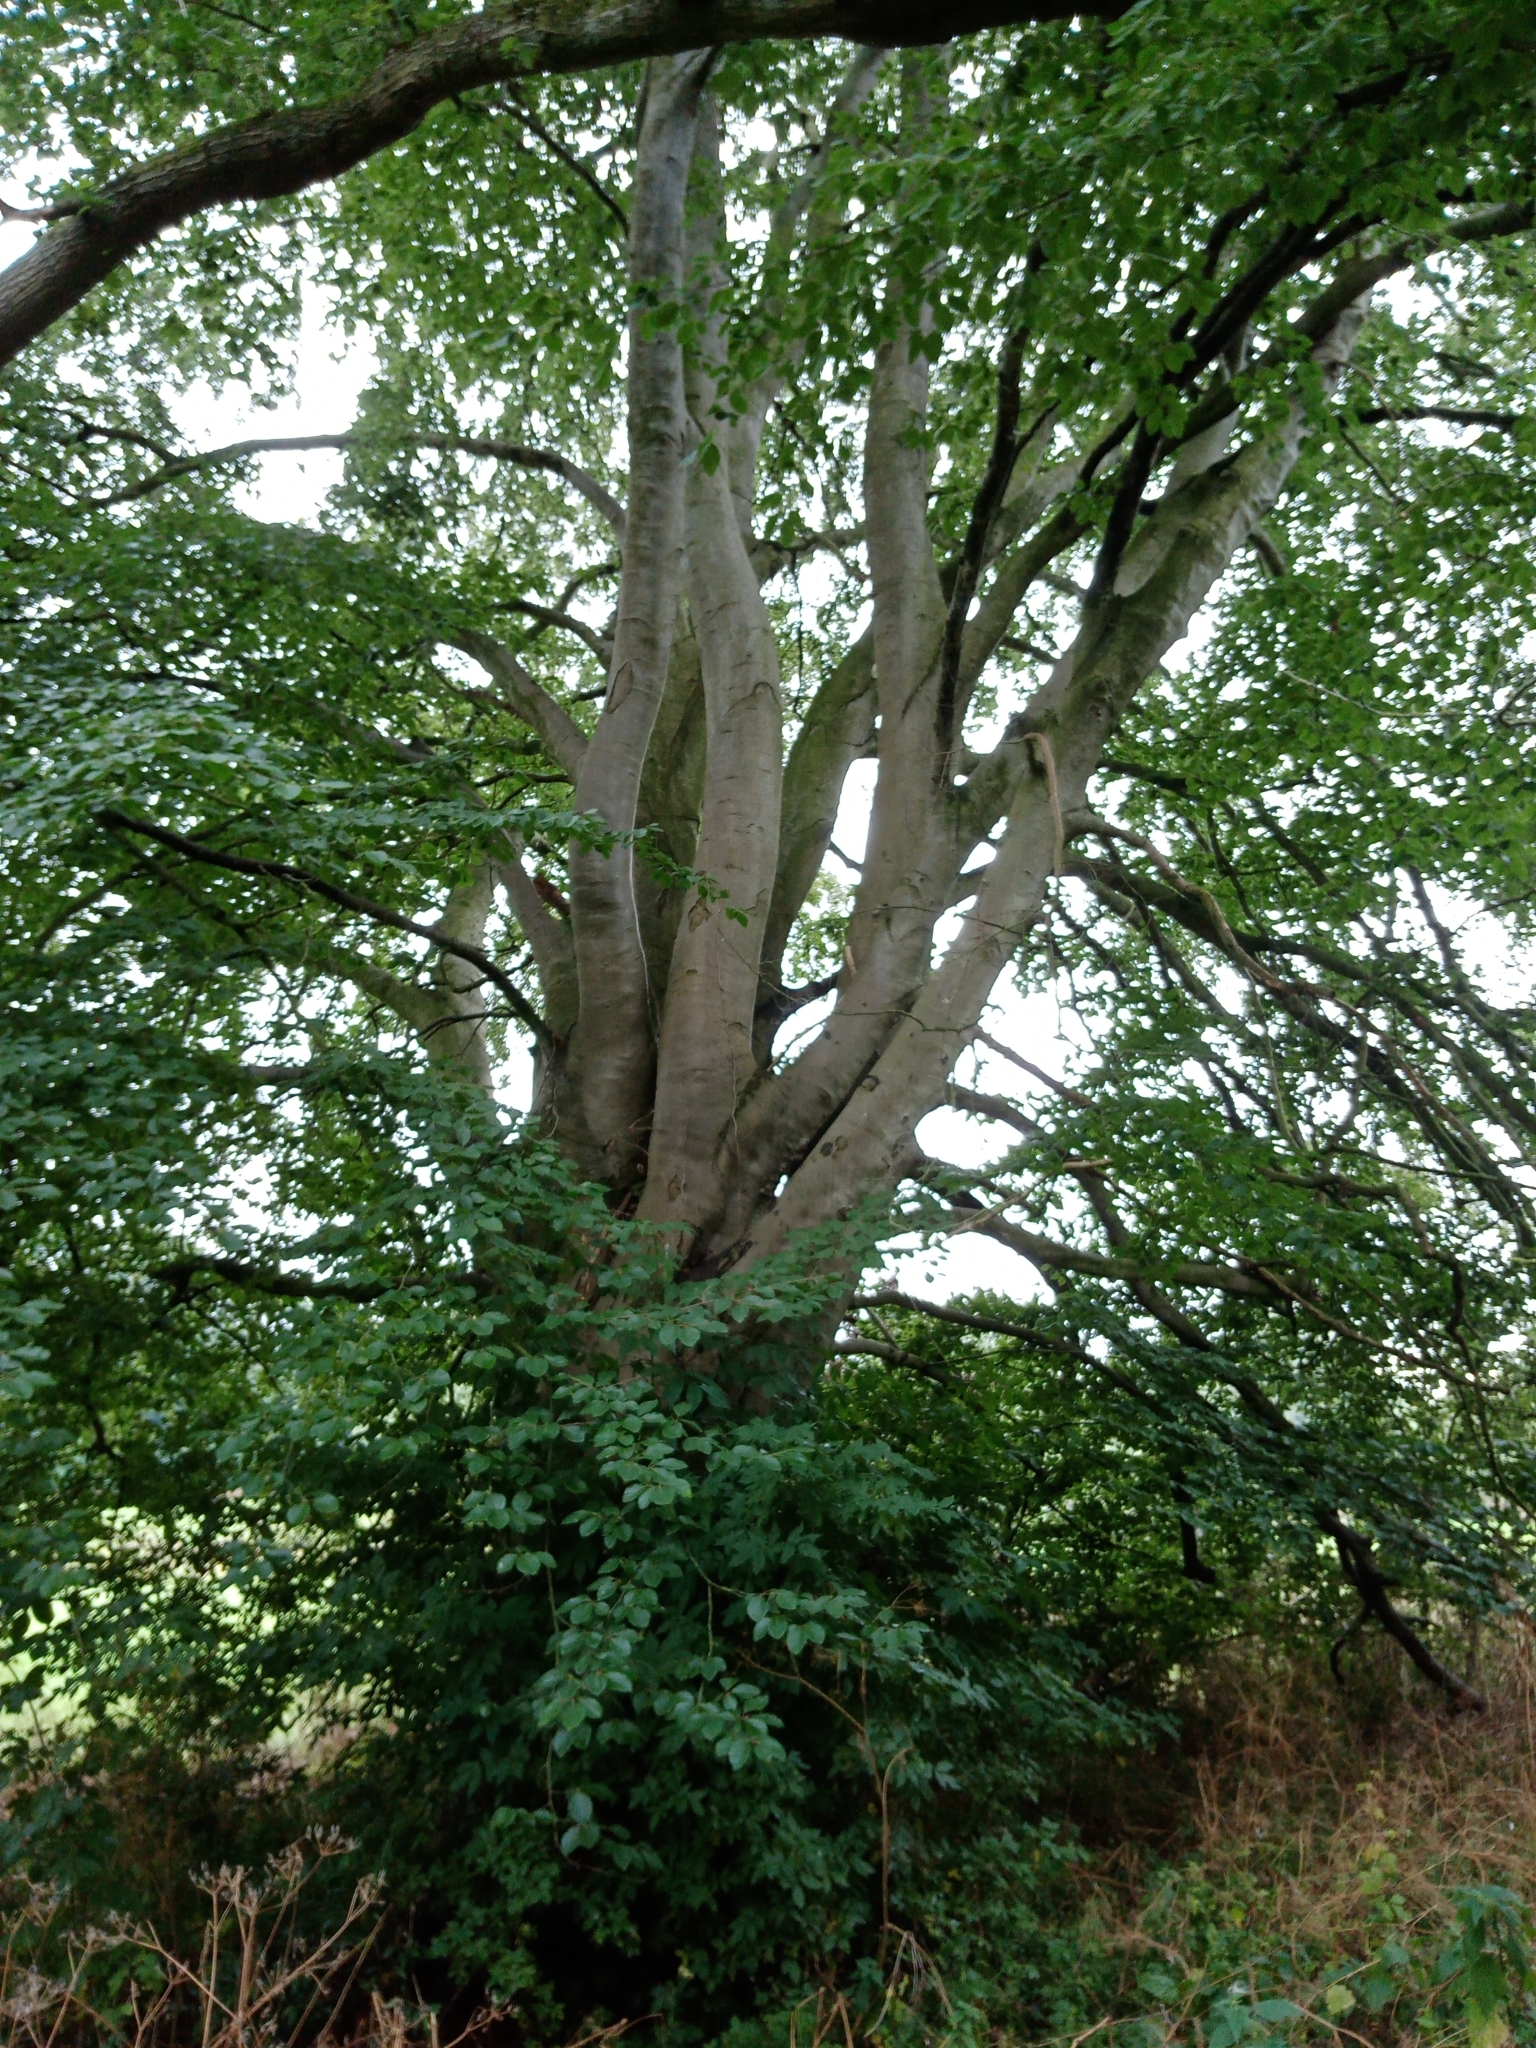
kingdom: Plantae
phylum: Tracheophyta
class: Magnoliopsida
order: Fagales
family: Fagaceae
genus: Fagus
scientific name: Fagus sylvatica
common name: Beech
